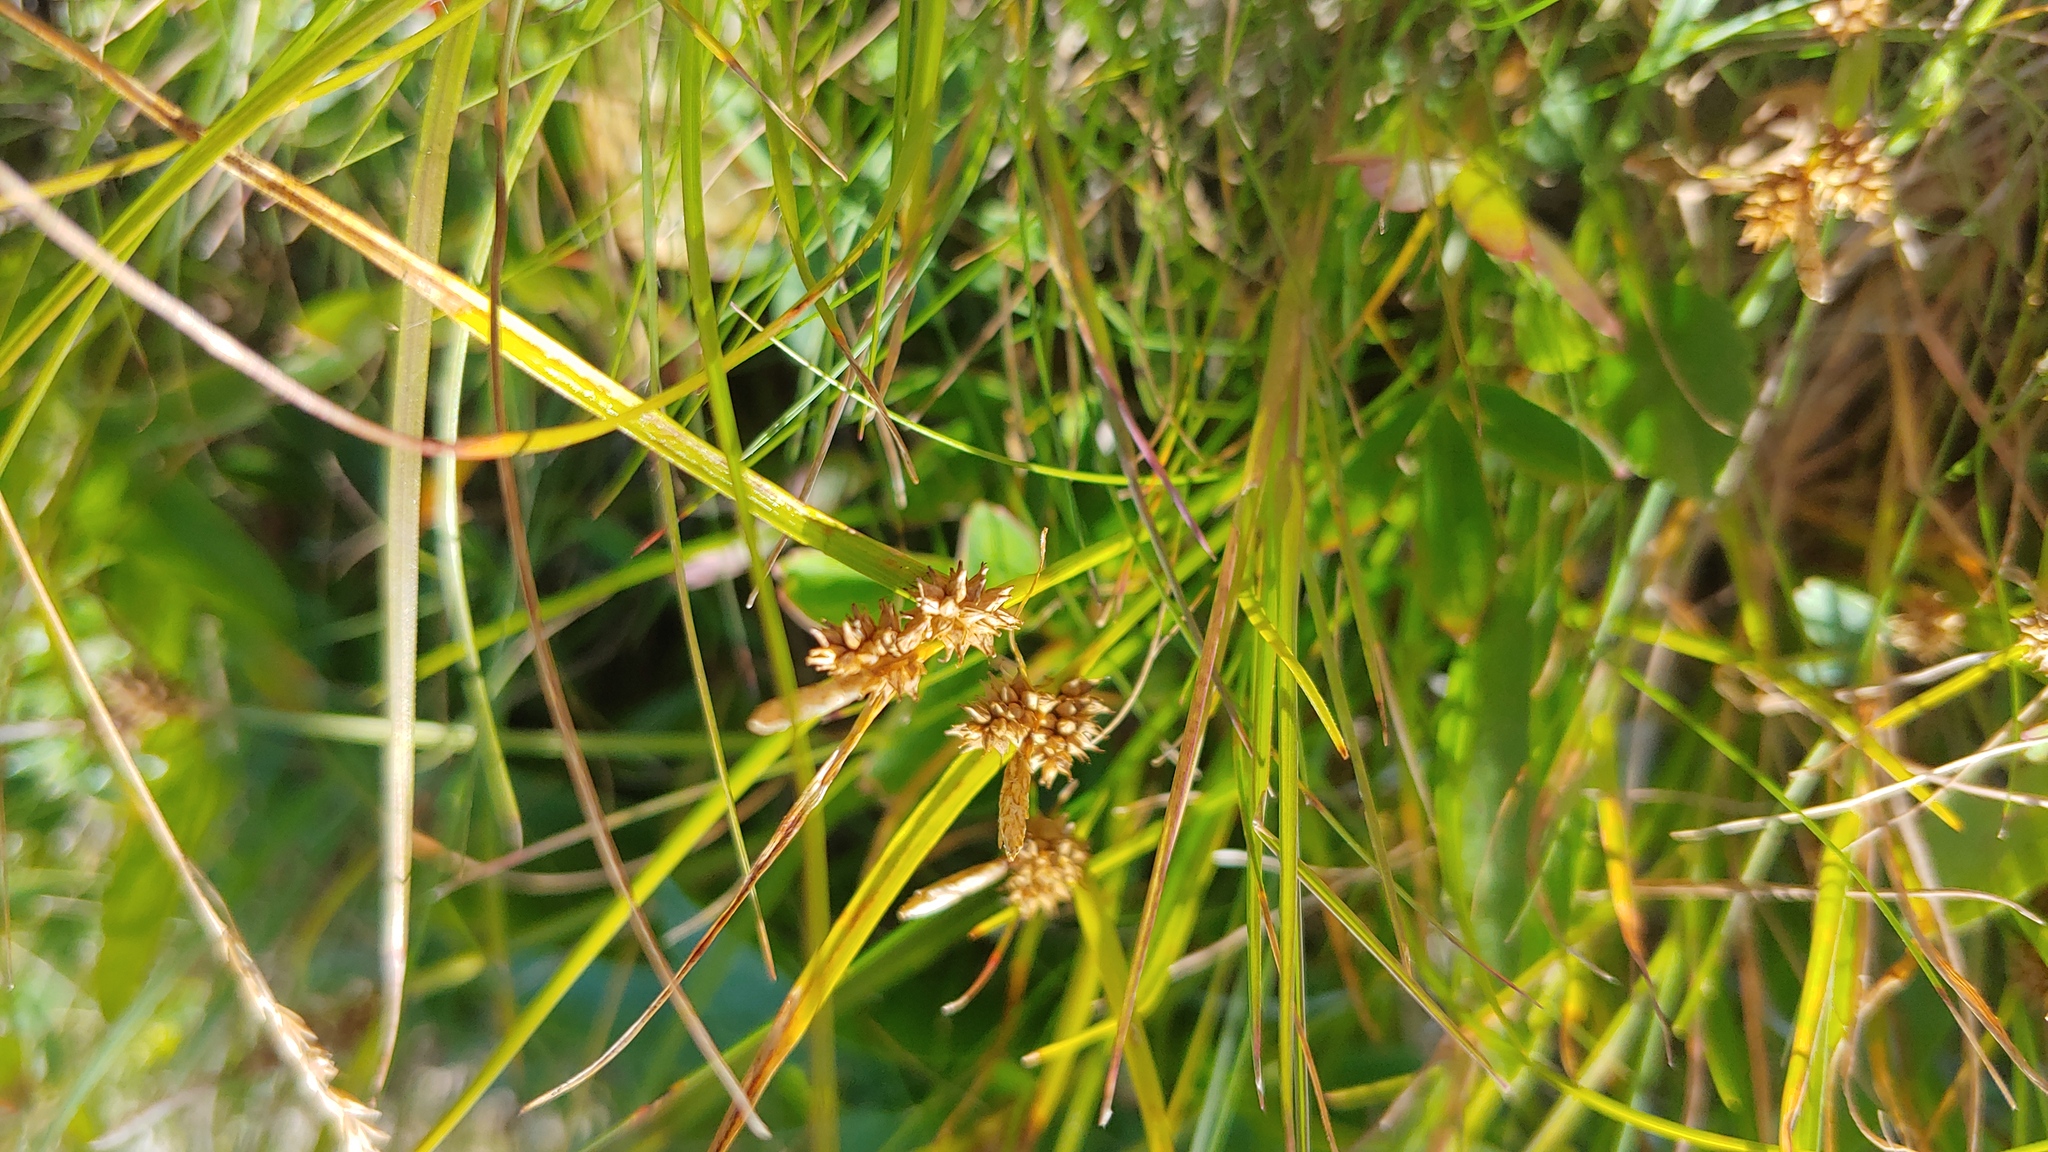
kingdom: Plantae
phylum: Tracheophyta
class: Liliopsida
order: Poales
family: Cyperaceae
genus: Carex
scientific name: Carex
